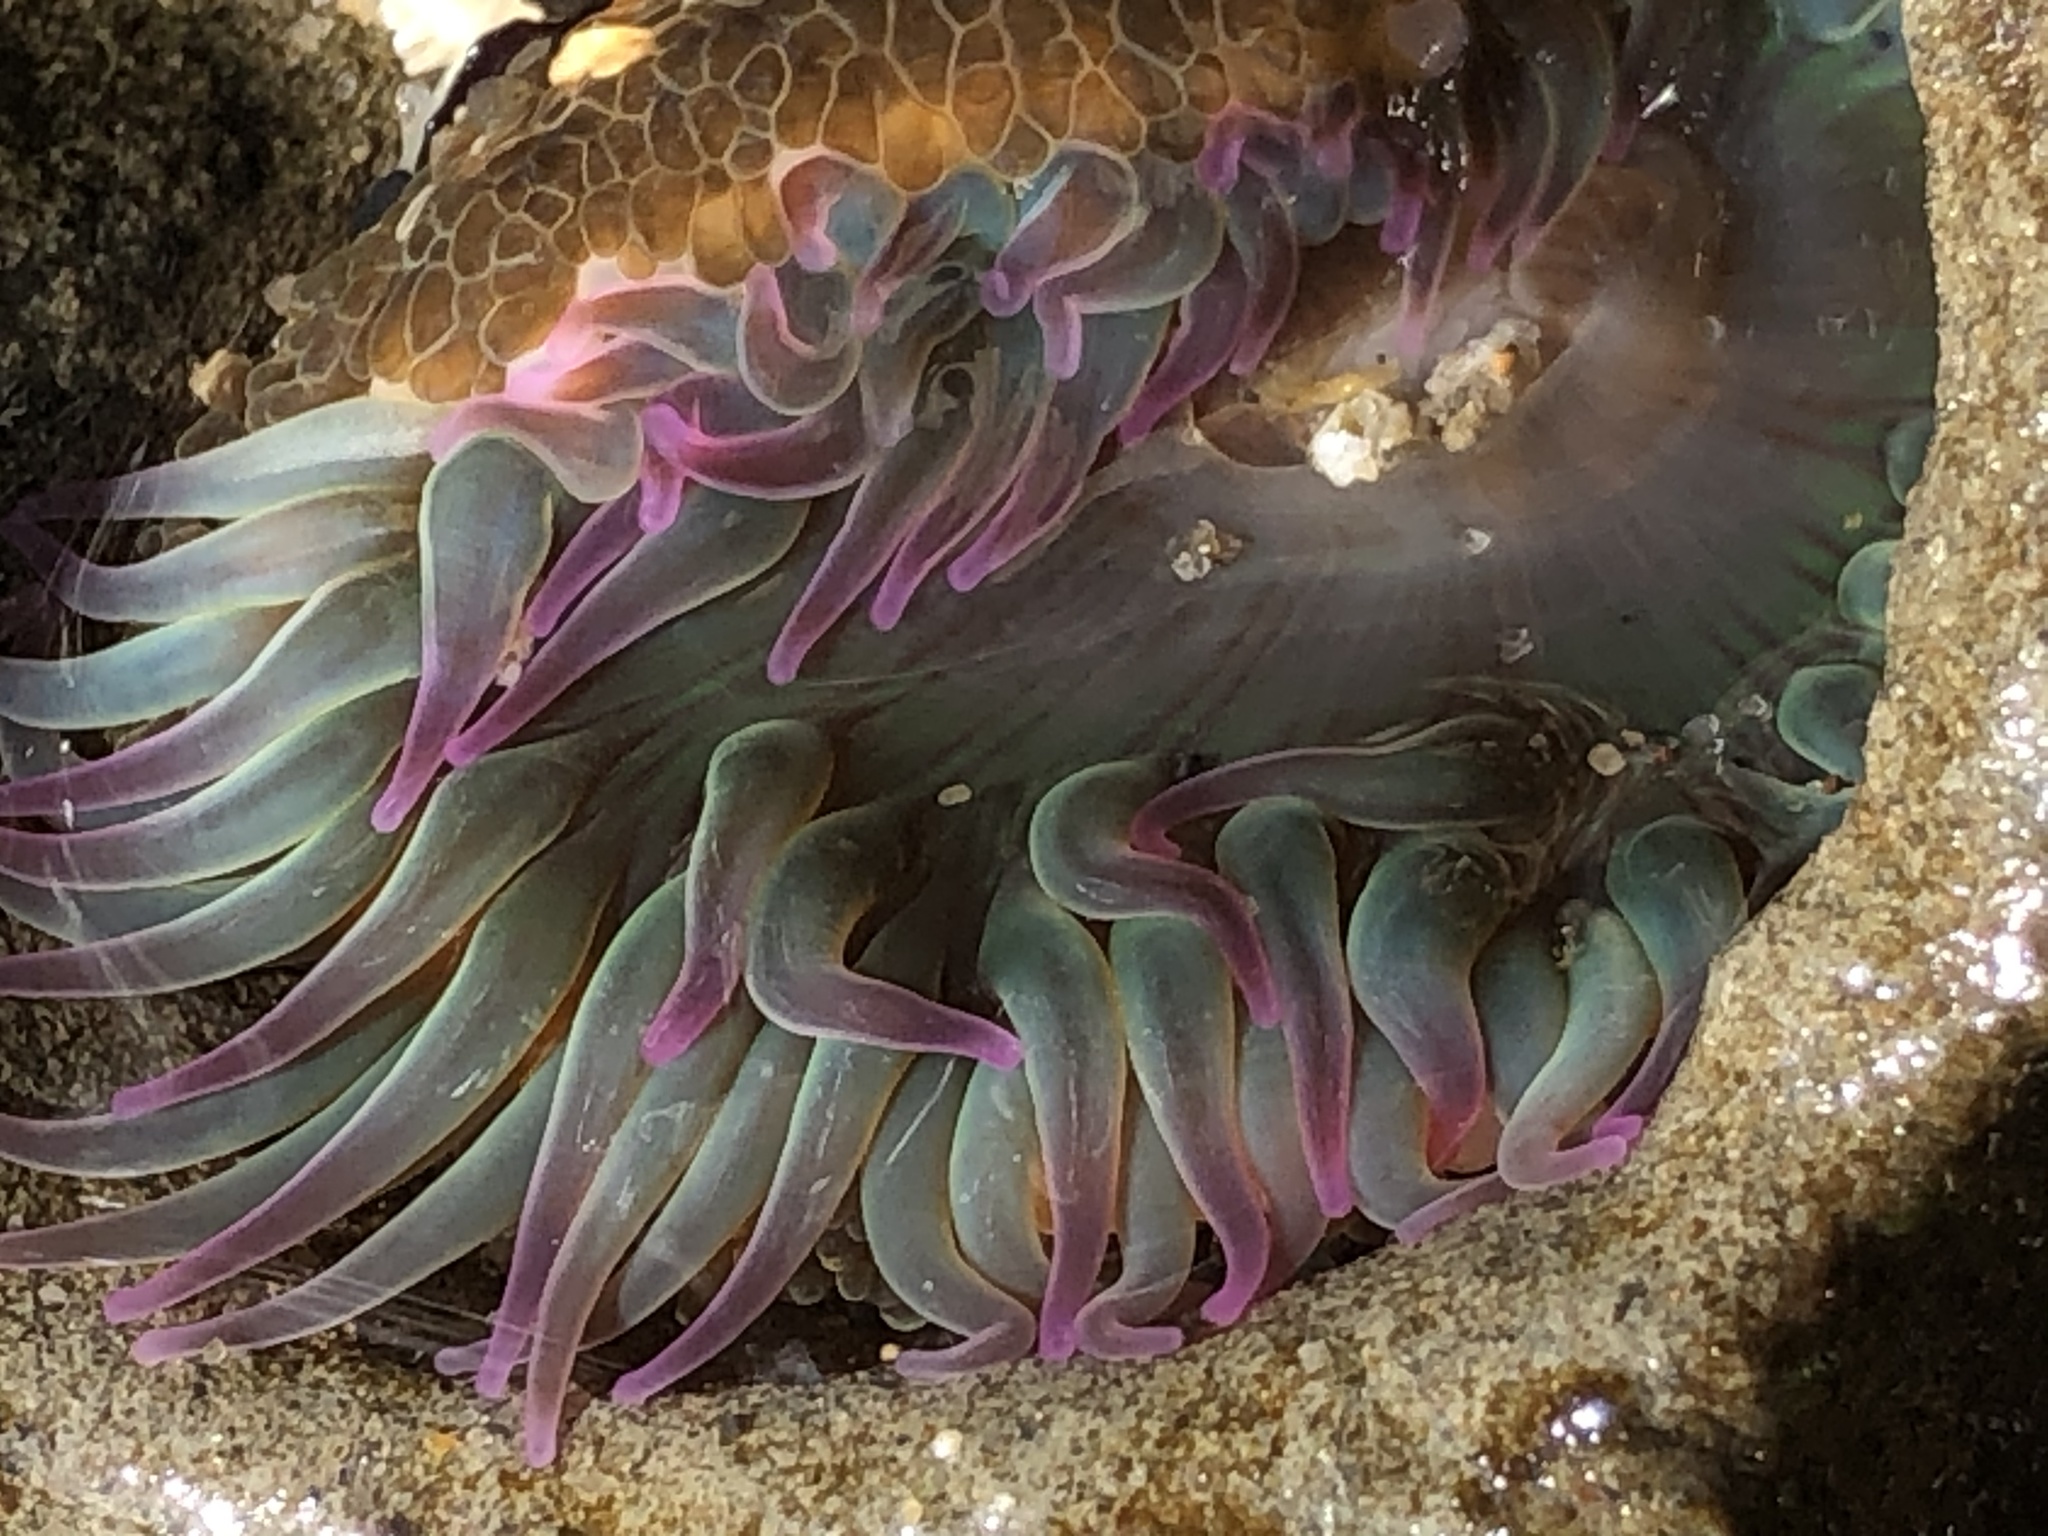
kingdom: Animalia
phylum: Cnidaria
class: Anthozoa
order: Actiniaria
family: Actiniidae
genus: Anthopleura
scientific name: Anthopleura elegantissima
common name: Clonal anemone
